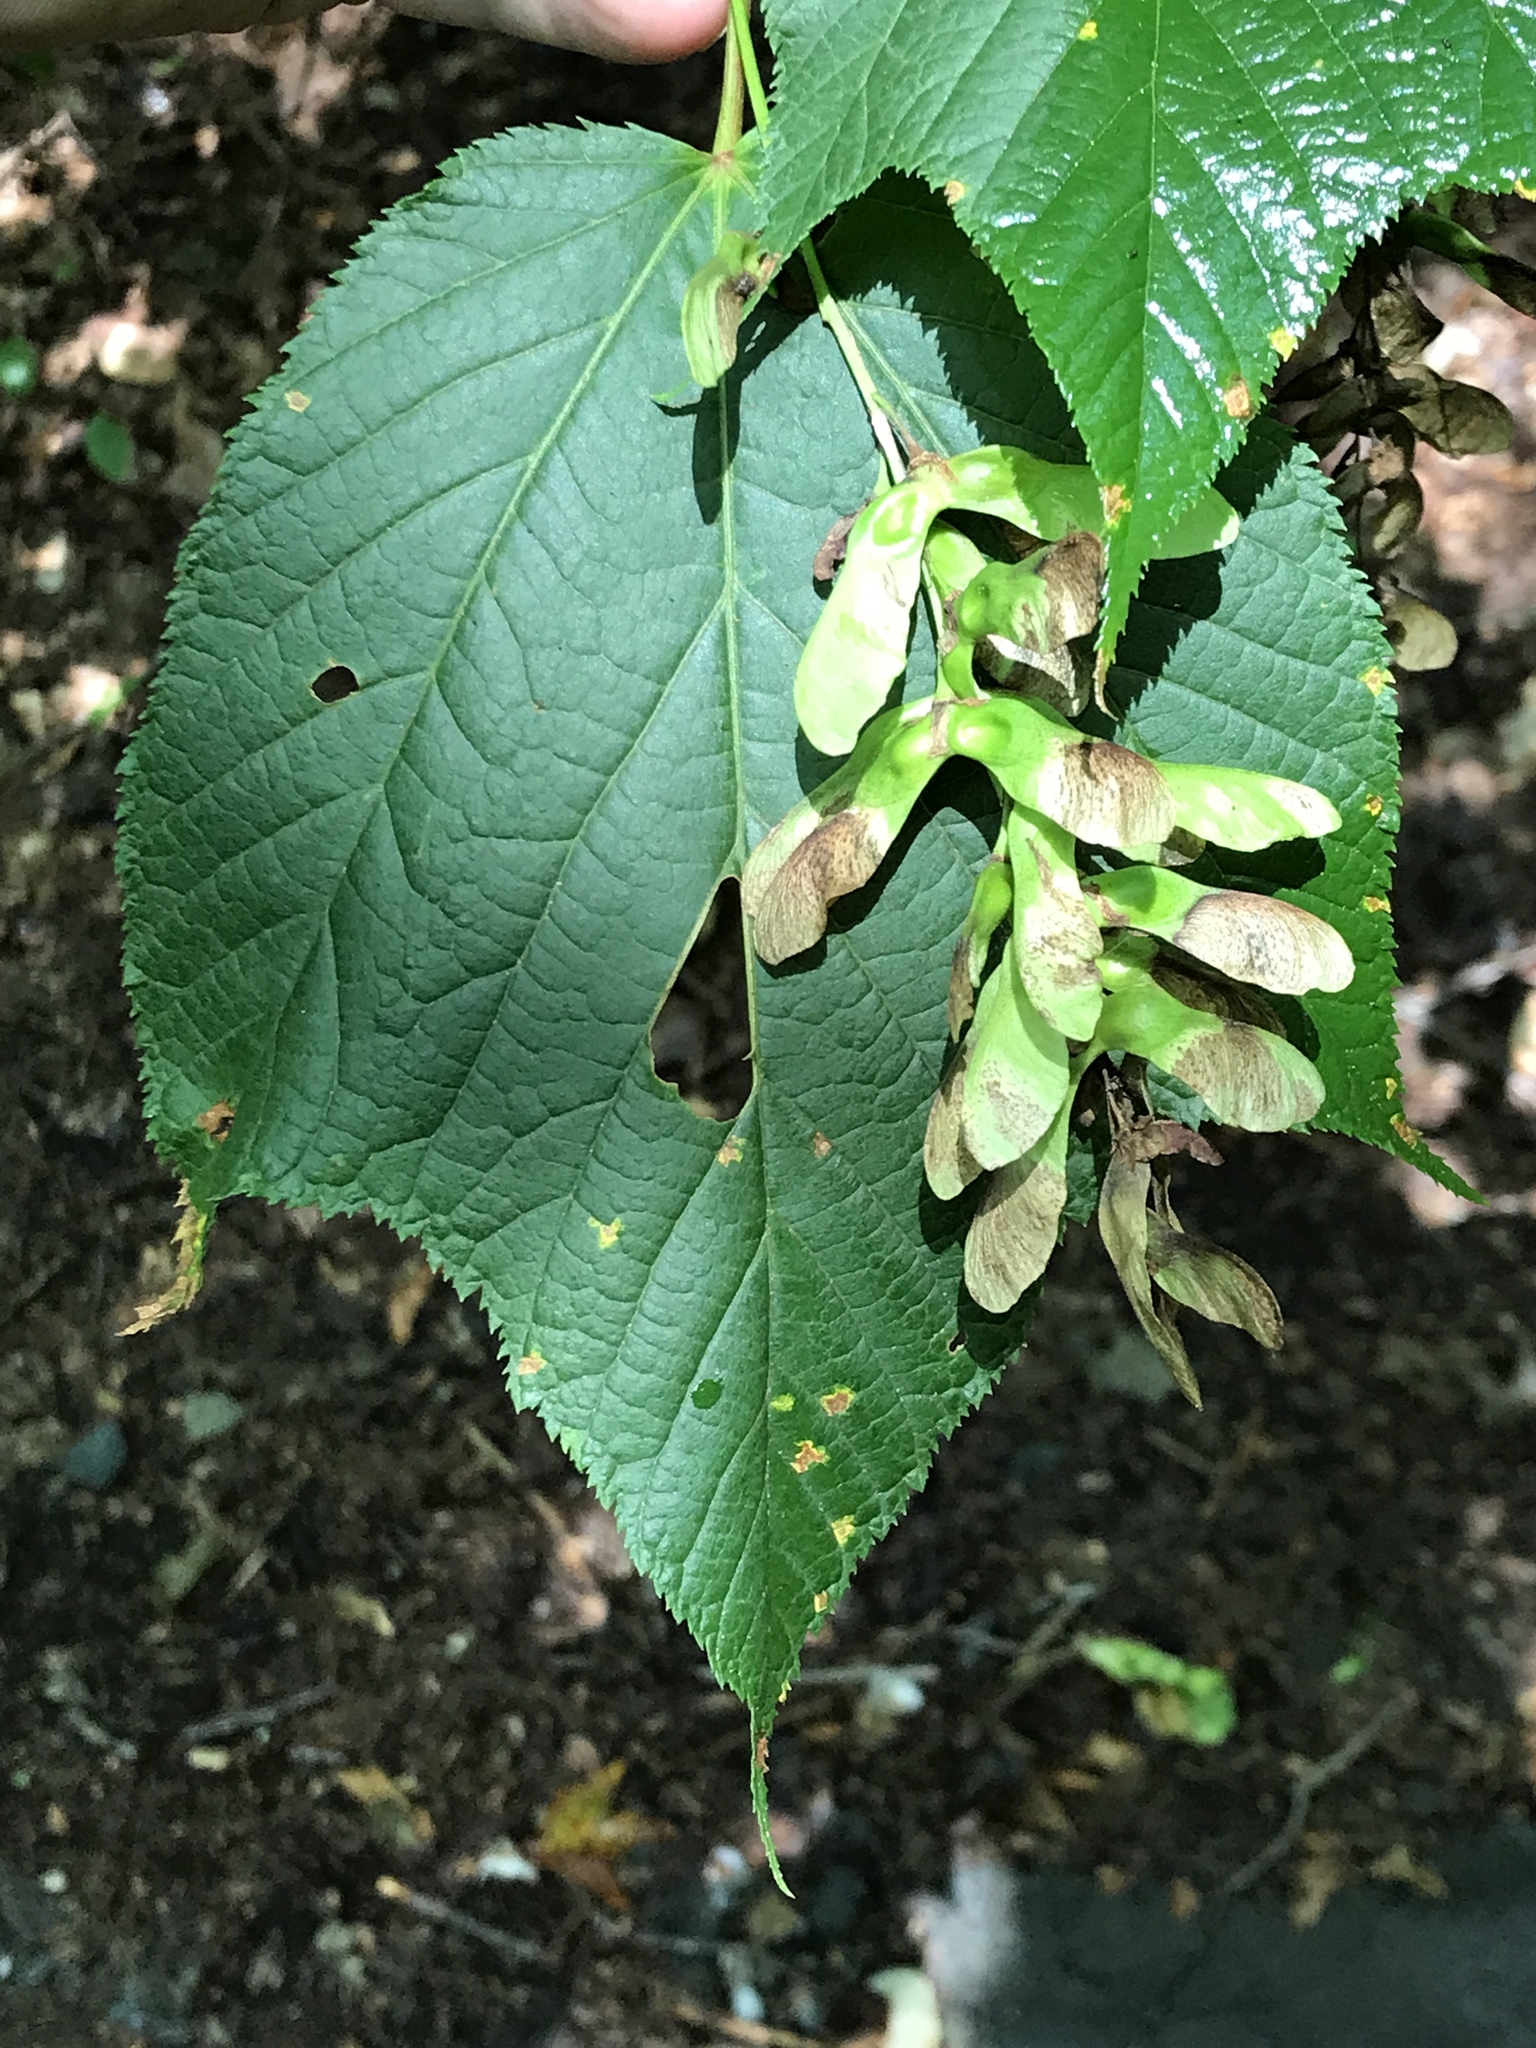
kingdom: Plantae
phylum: Tracheophyta
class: Magnoliopsida
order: Sapindales
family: Sapindaceae
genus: Acer
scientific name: Acer pensylvanicum
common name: Moosewood
